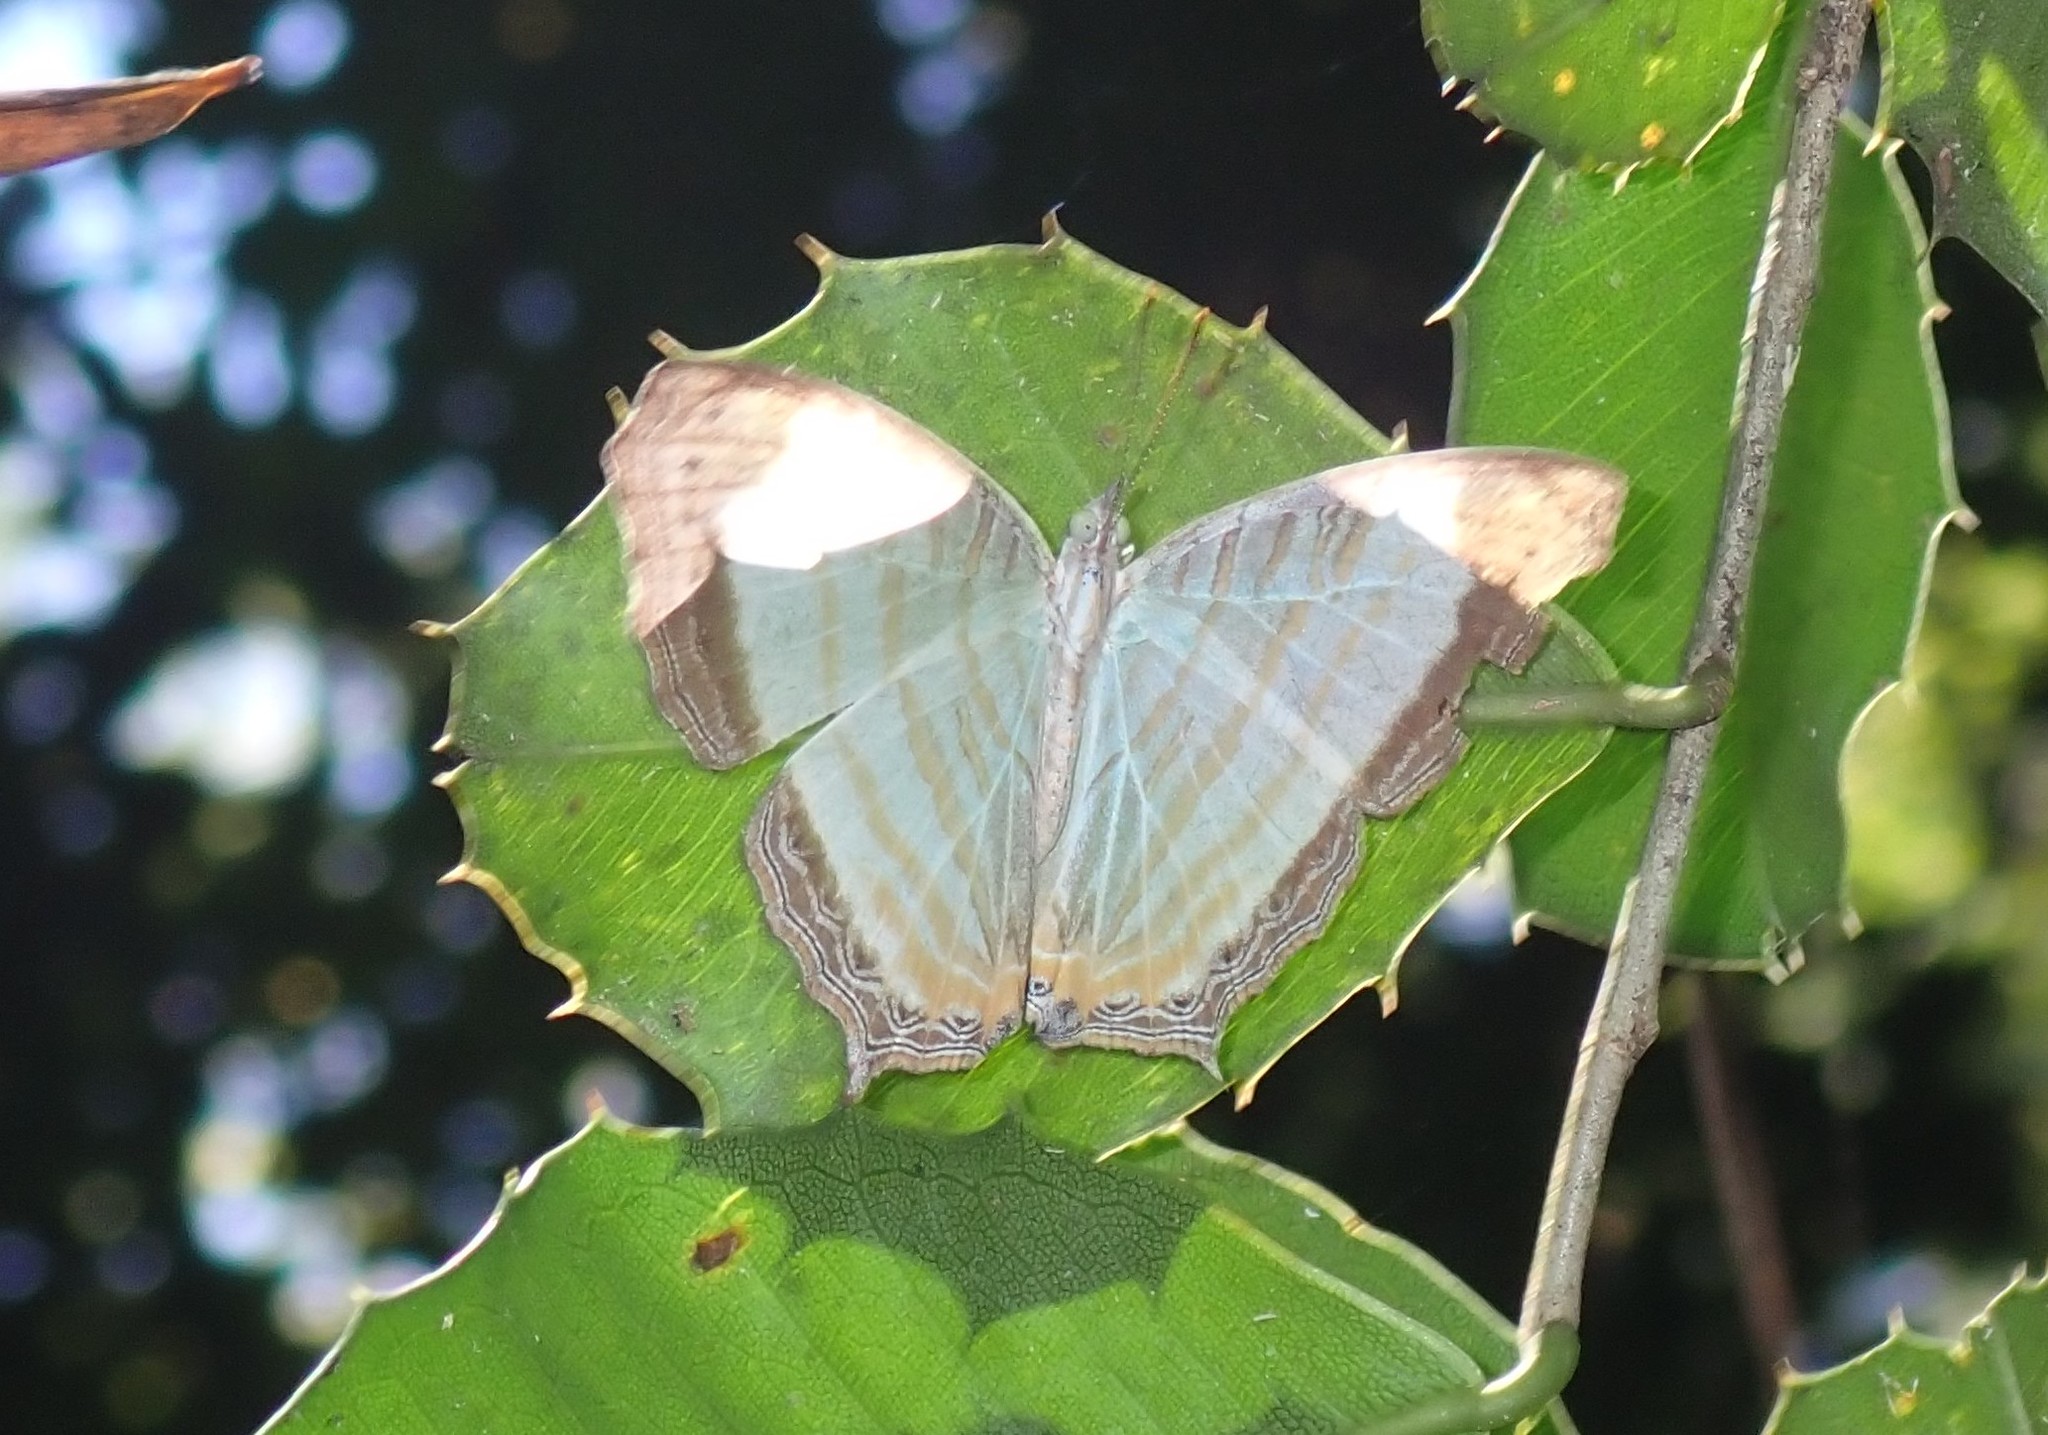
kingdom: Animalia
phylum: Arthropoda
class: Insecta
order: Lepidoptera
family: Nymphalidae
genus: Cyrestis
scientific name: Cyrestis themire
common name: Little mapwing
